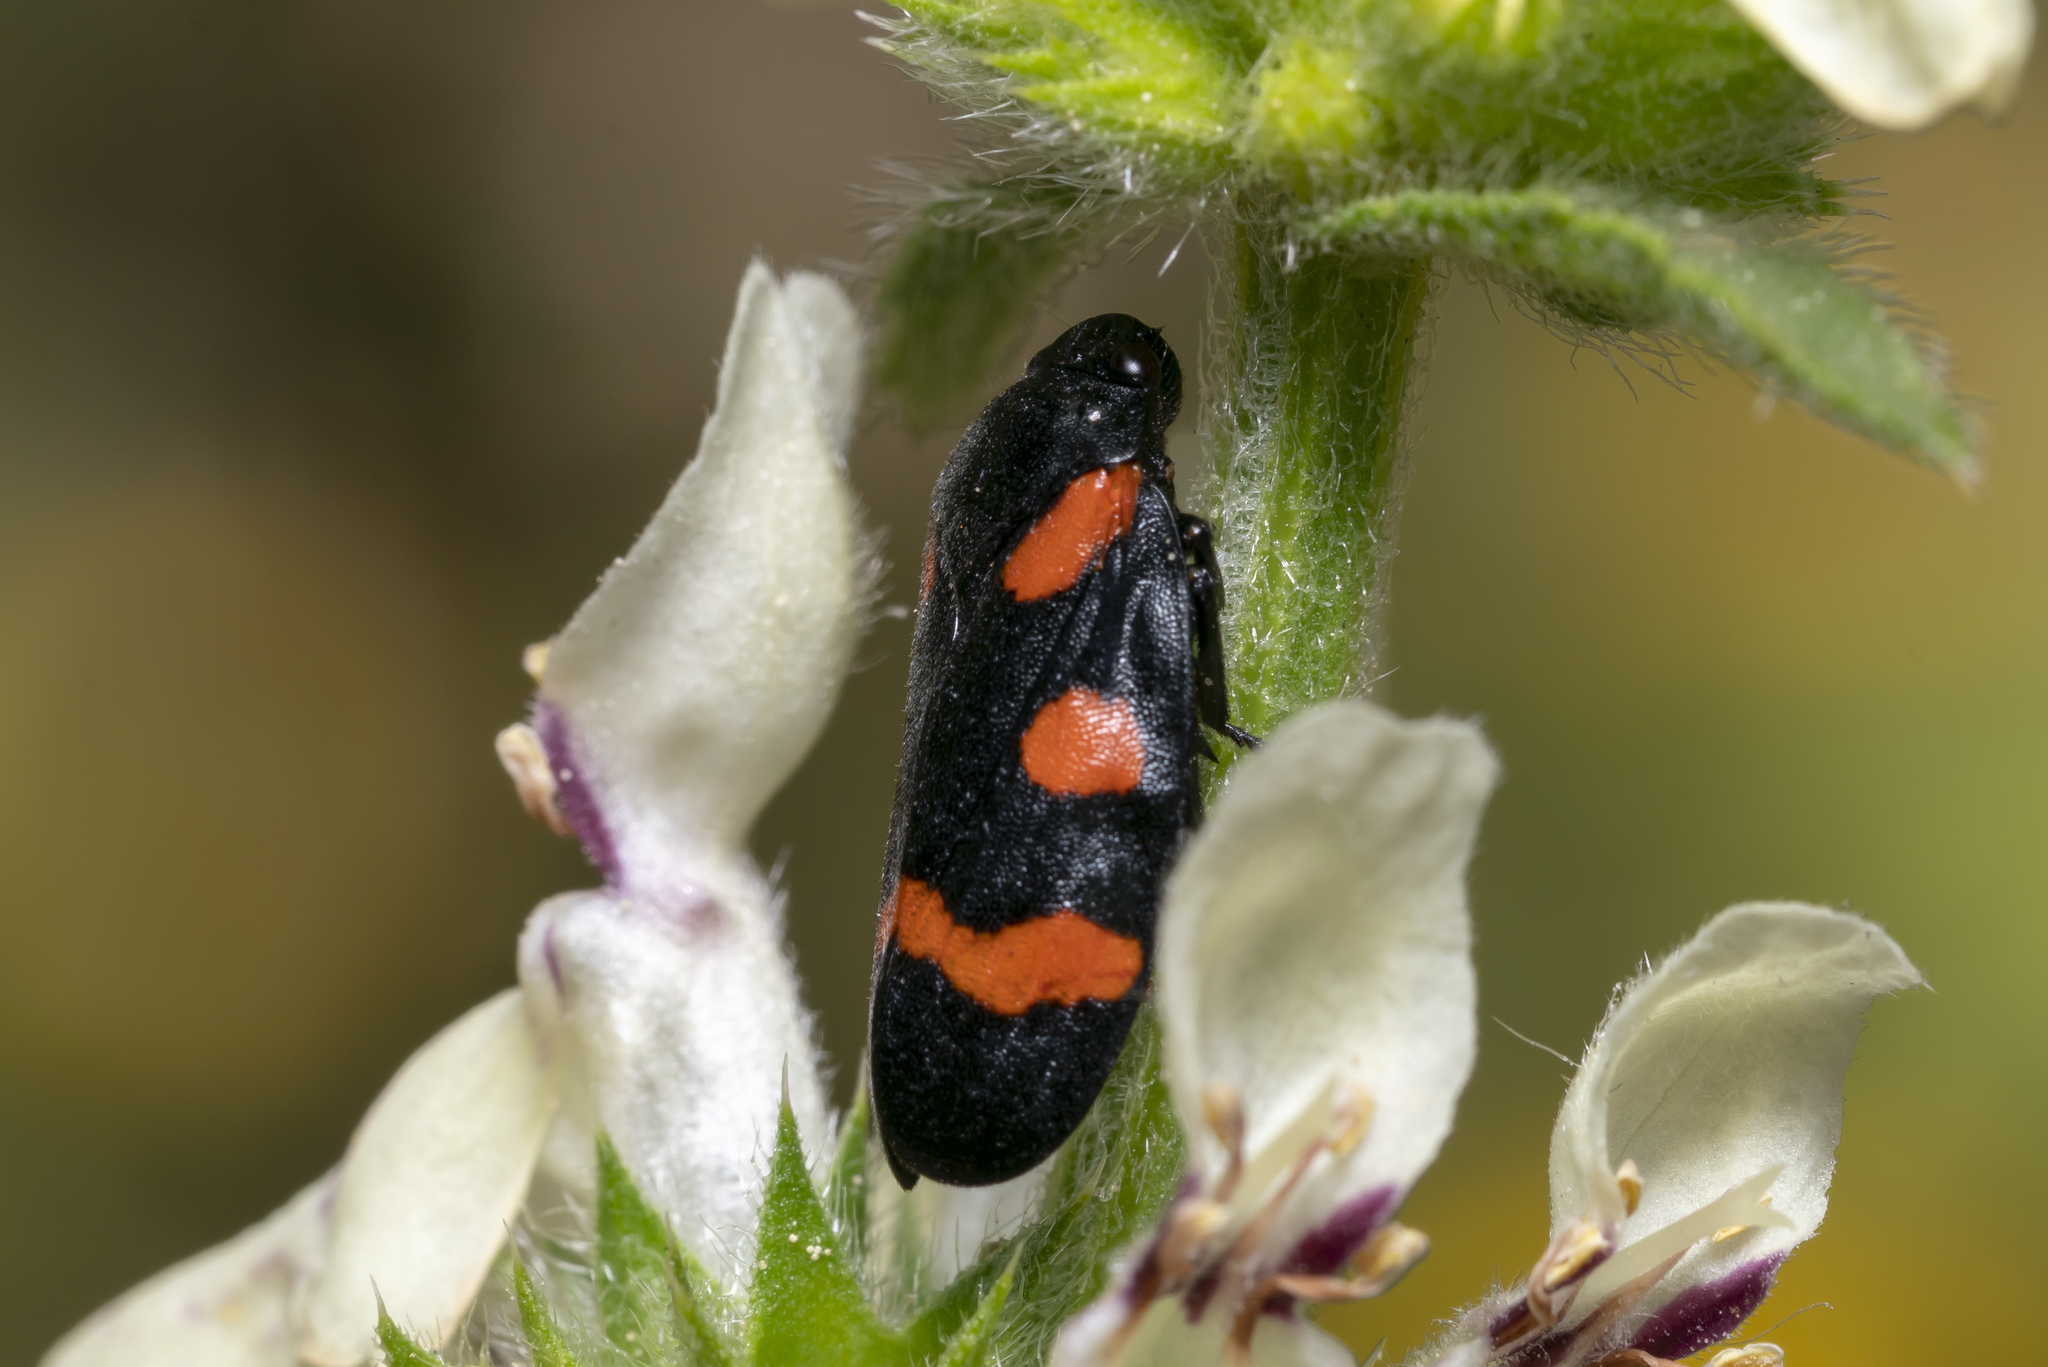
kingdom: Animalia
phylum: Arthropoda
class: Insecta
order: Hemiptera
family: Cercopidae
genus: Cercopis
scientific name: Cercopis sanguinolenta
